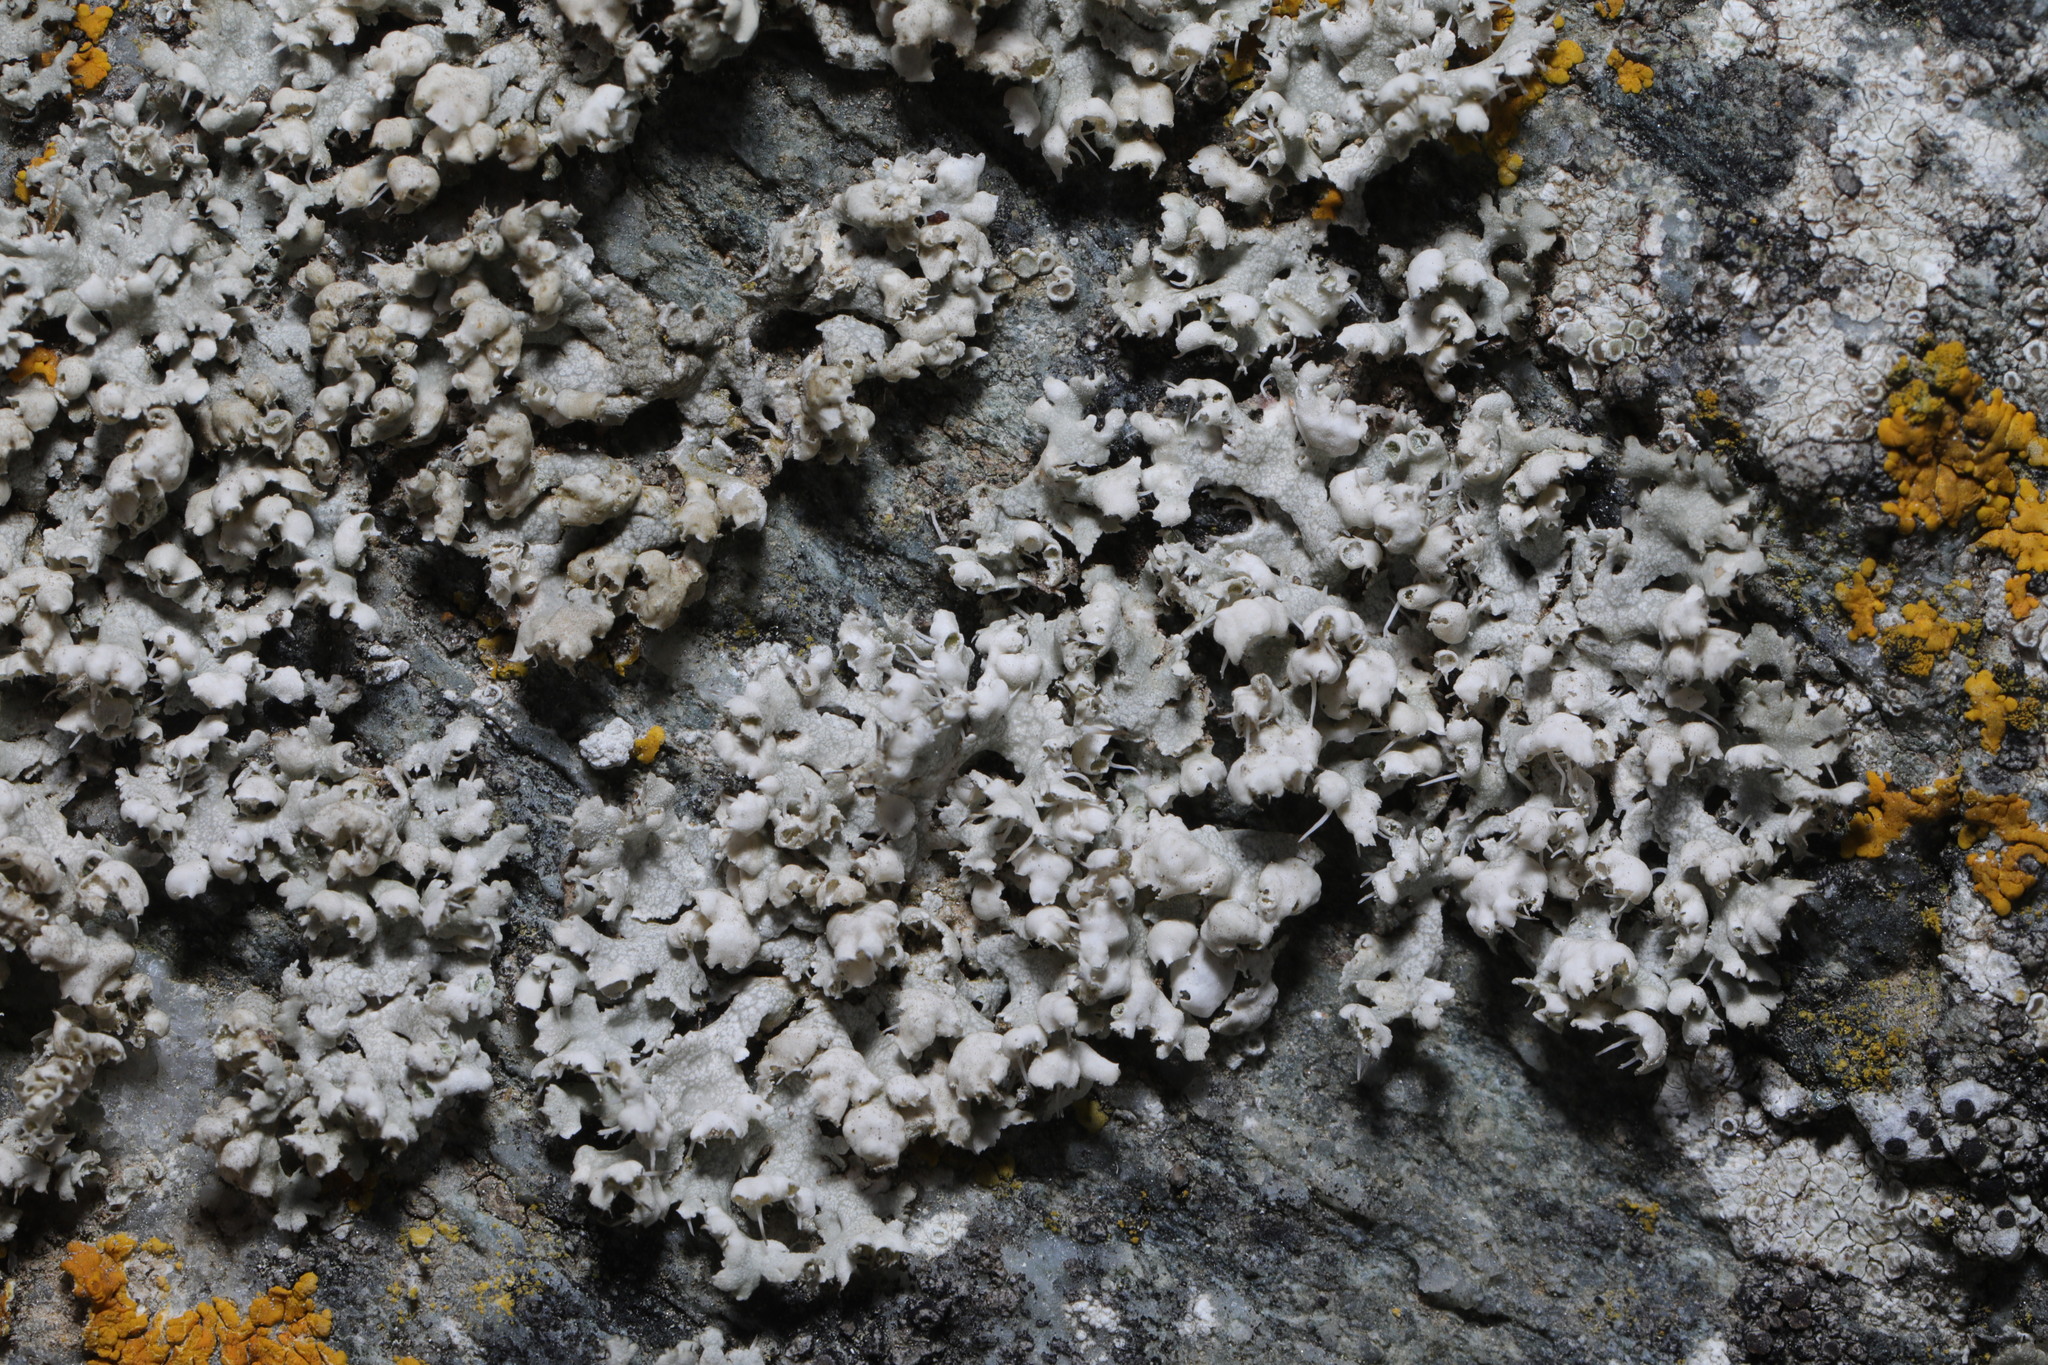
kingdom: Fungi
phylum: Ascomycota
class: Lecanoromycetes
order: Caliciales
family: Physciaceae
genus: Physcia
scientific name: Physcia adscendens
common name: Hooded rosette lichen
